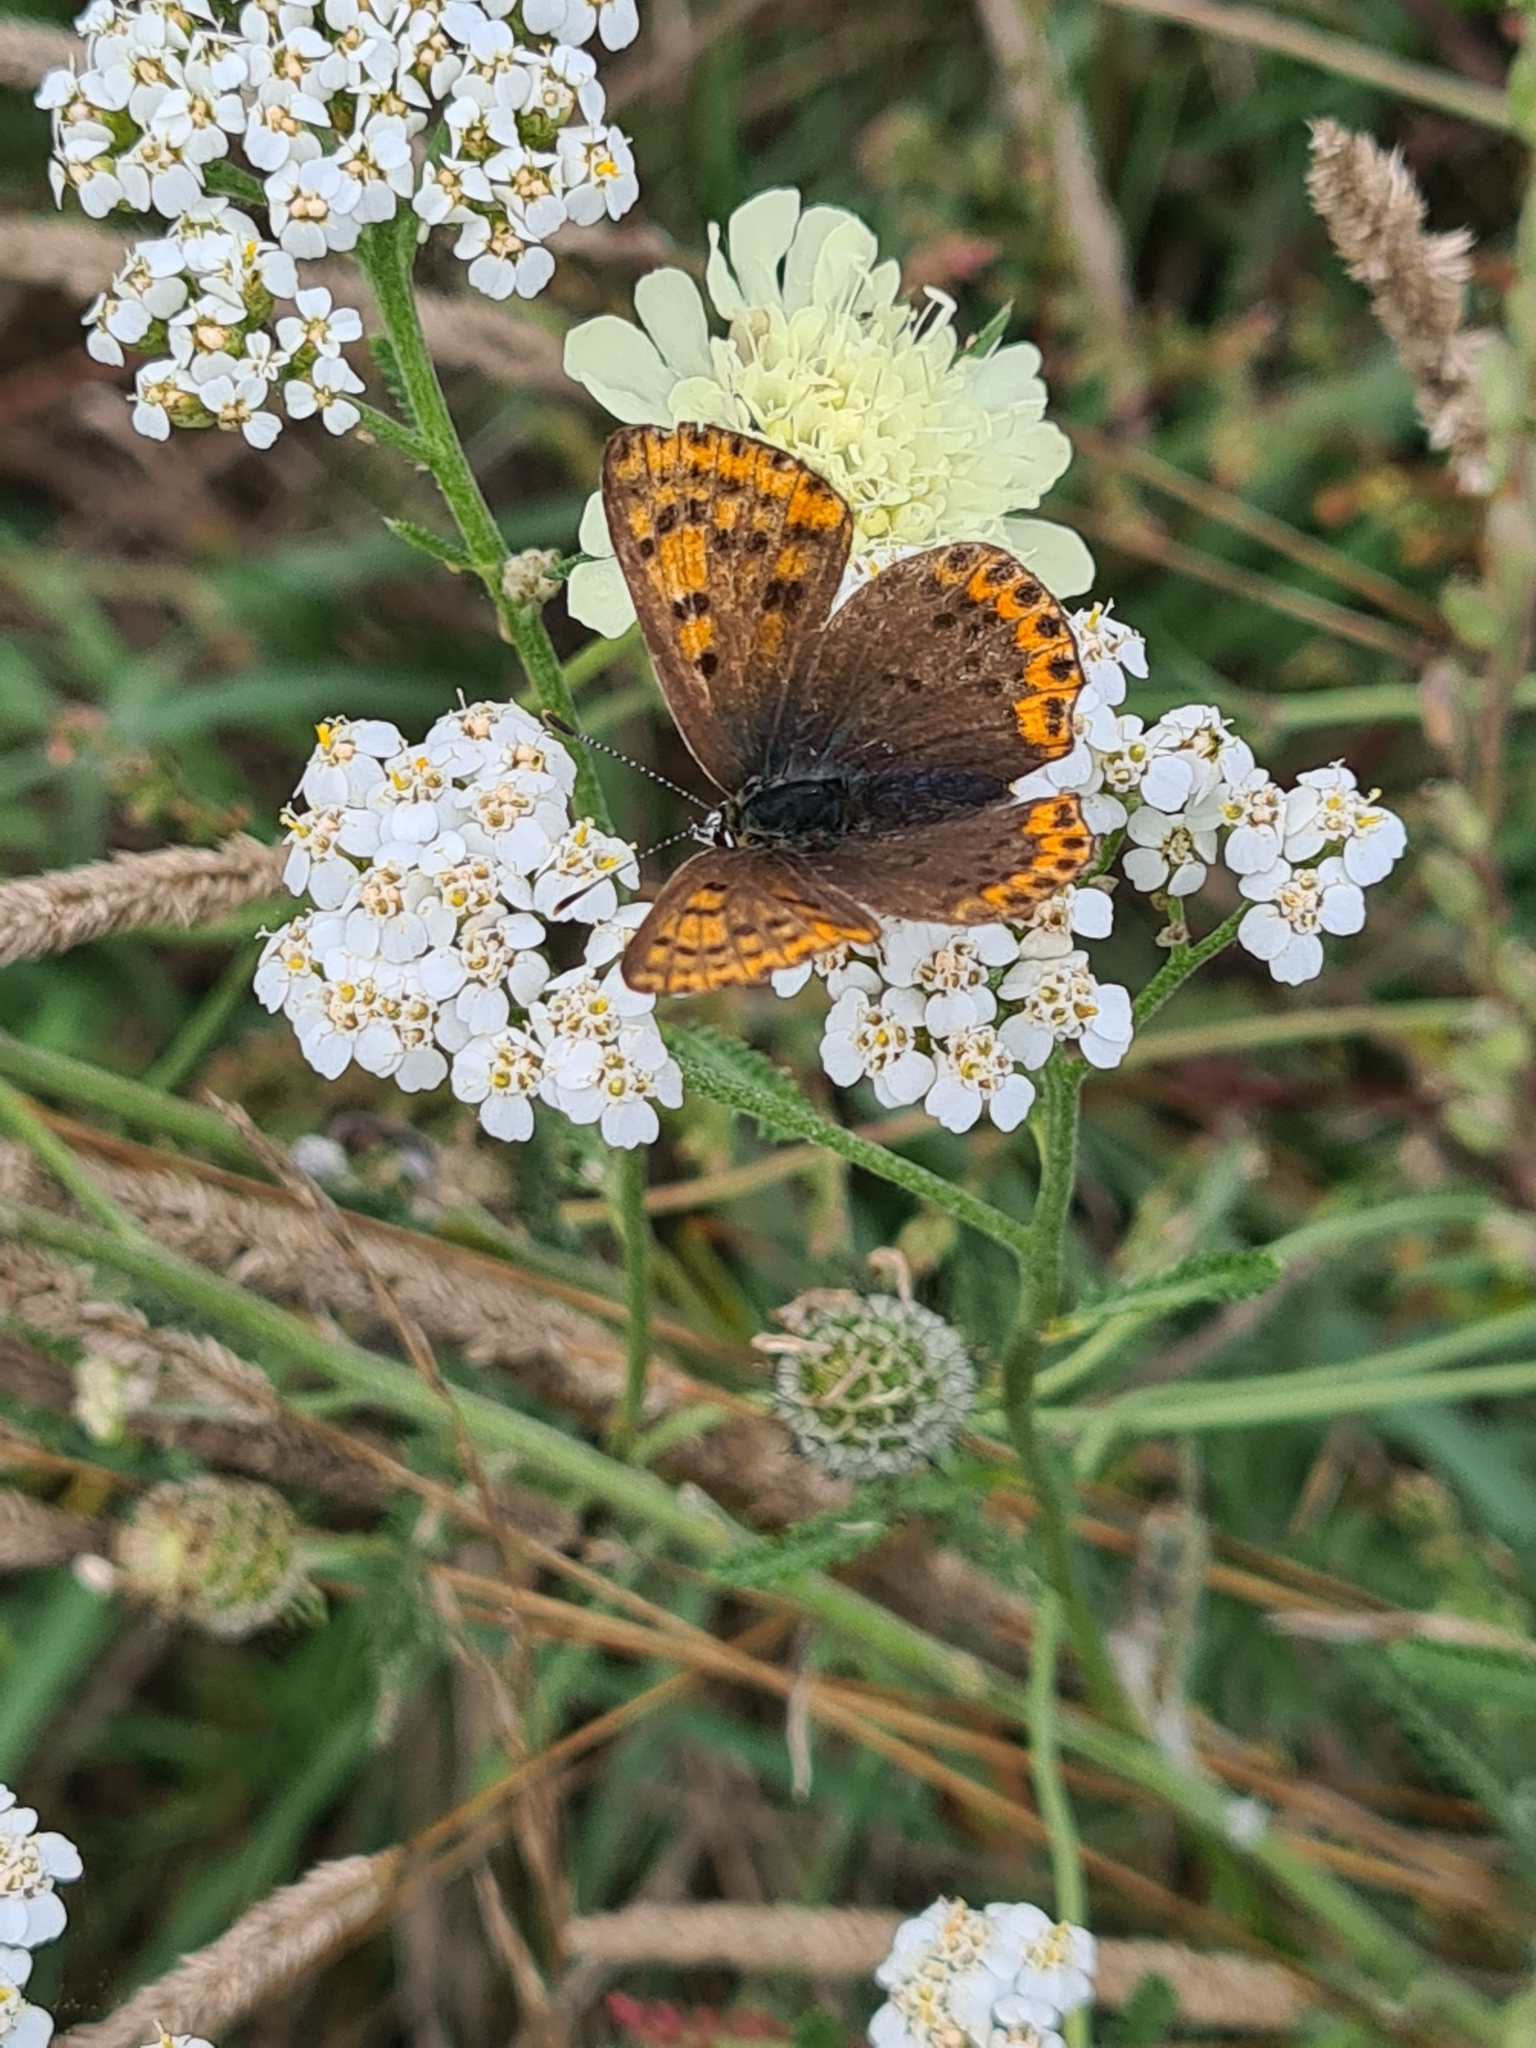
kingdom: Animalia
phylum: Arthropoda
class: Insecta
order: Lepidoptera
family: Lycaenidae
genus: Loweia
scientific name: Loweia tityrus
